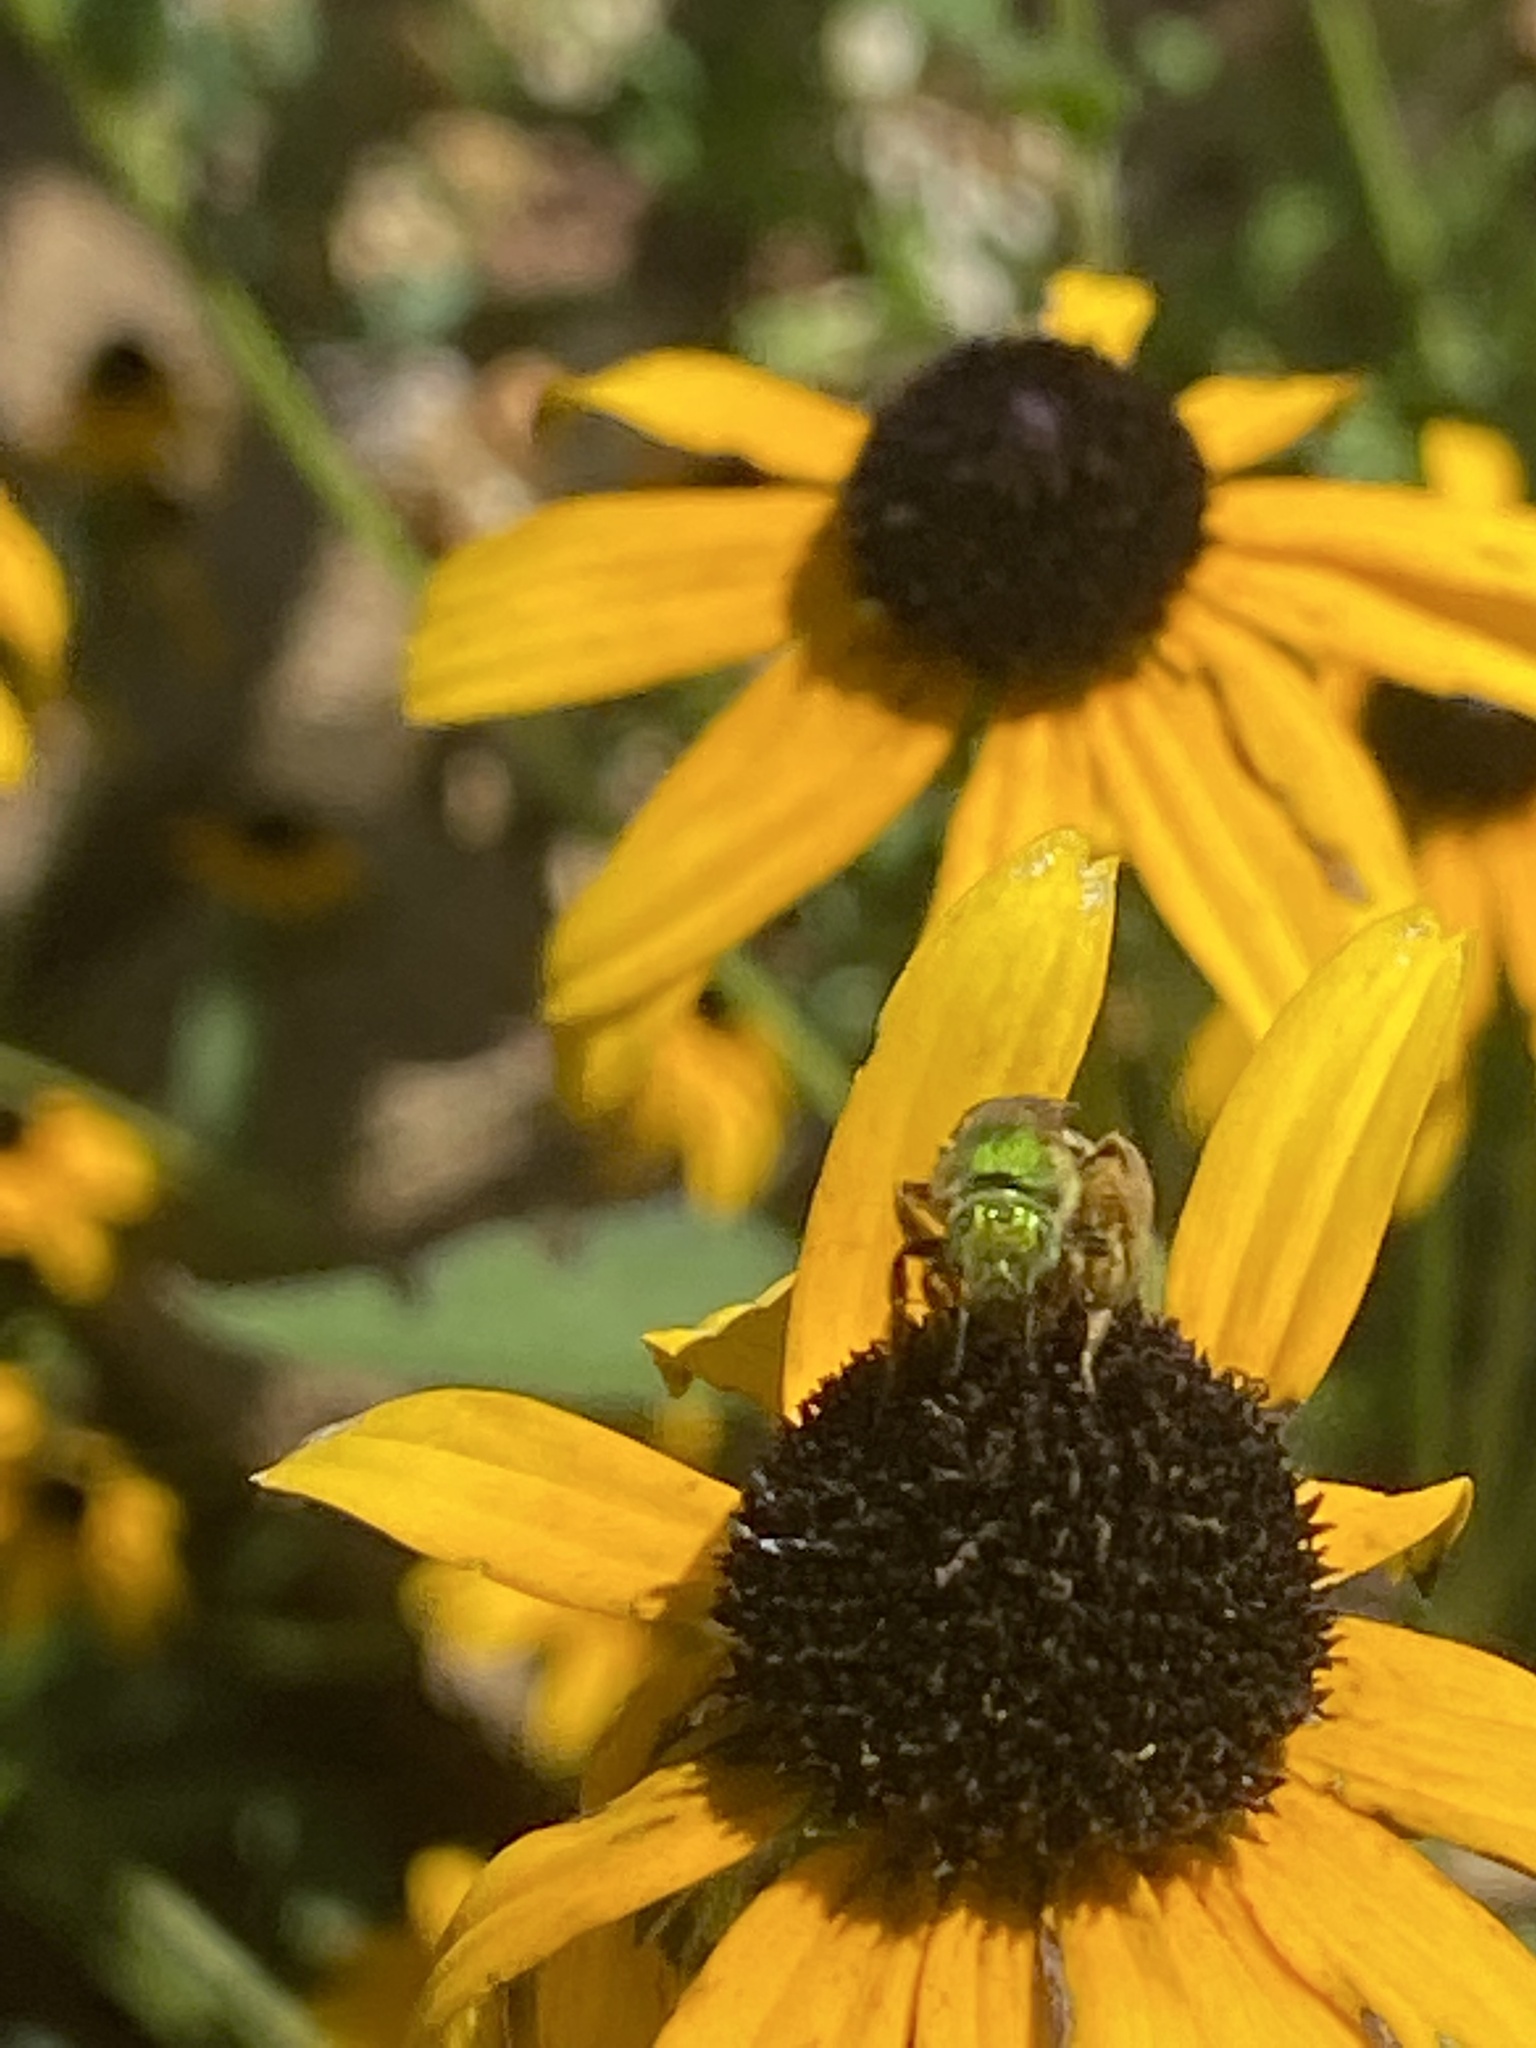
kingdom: Animalia
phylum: Arthropoda
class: Insecta
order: Hymenoptera
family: Halictidae
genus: Agapostemon
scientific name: Agapostemon virescens
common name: Bicolored striped sweat bee
